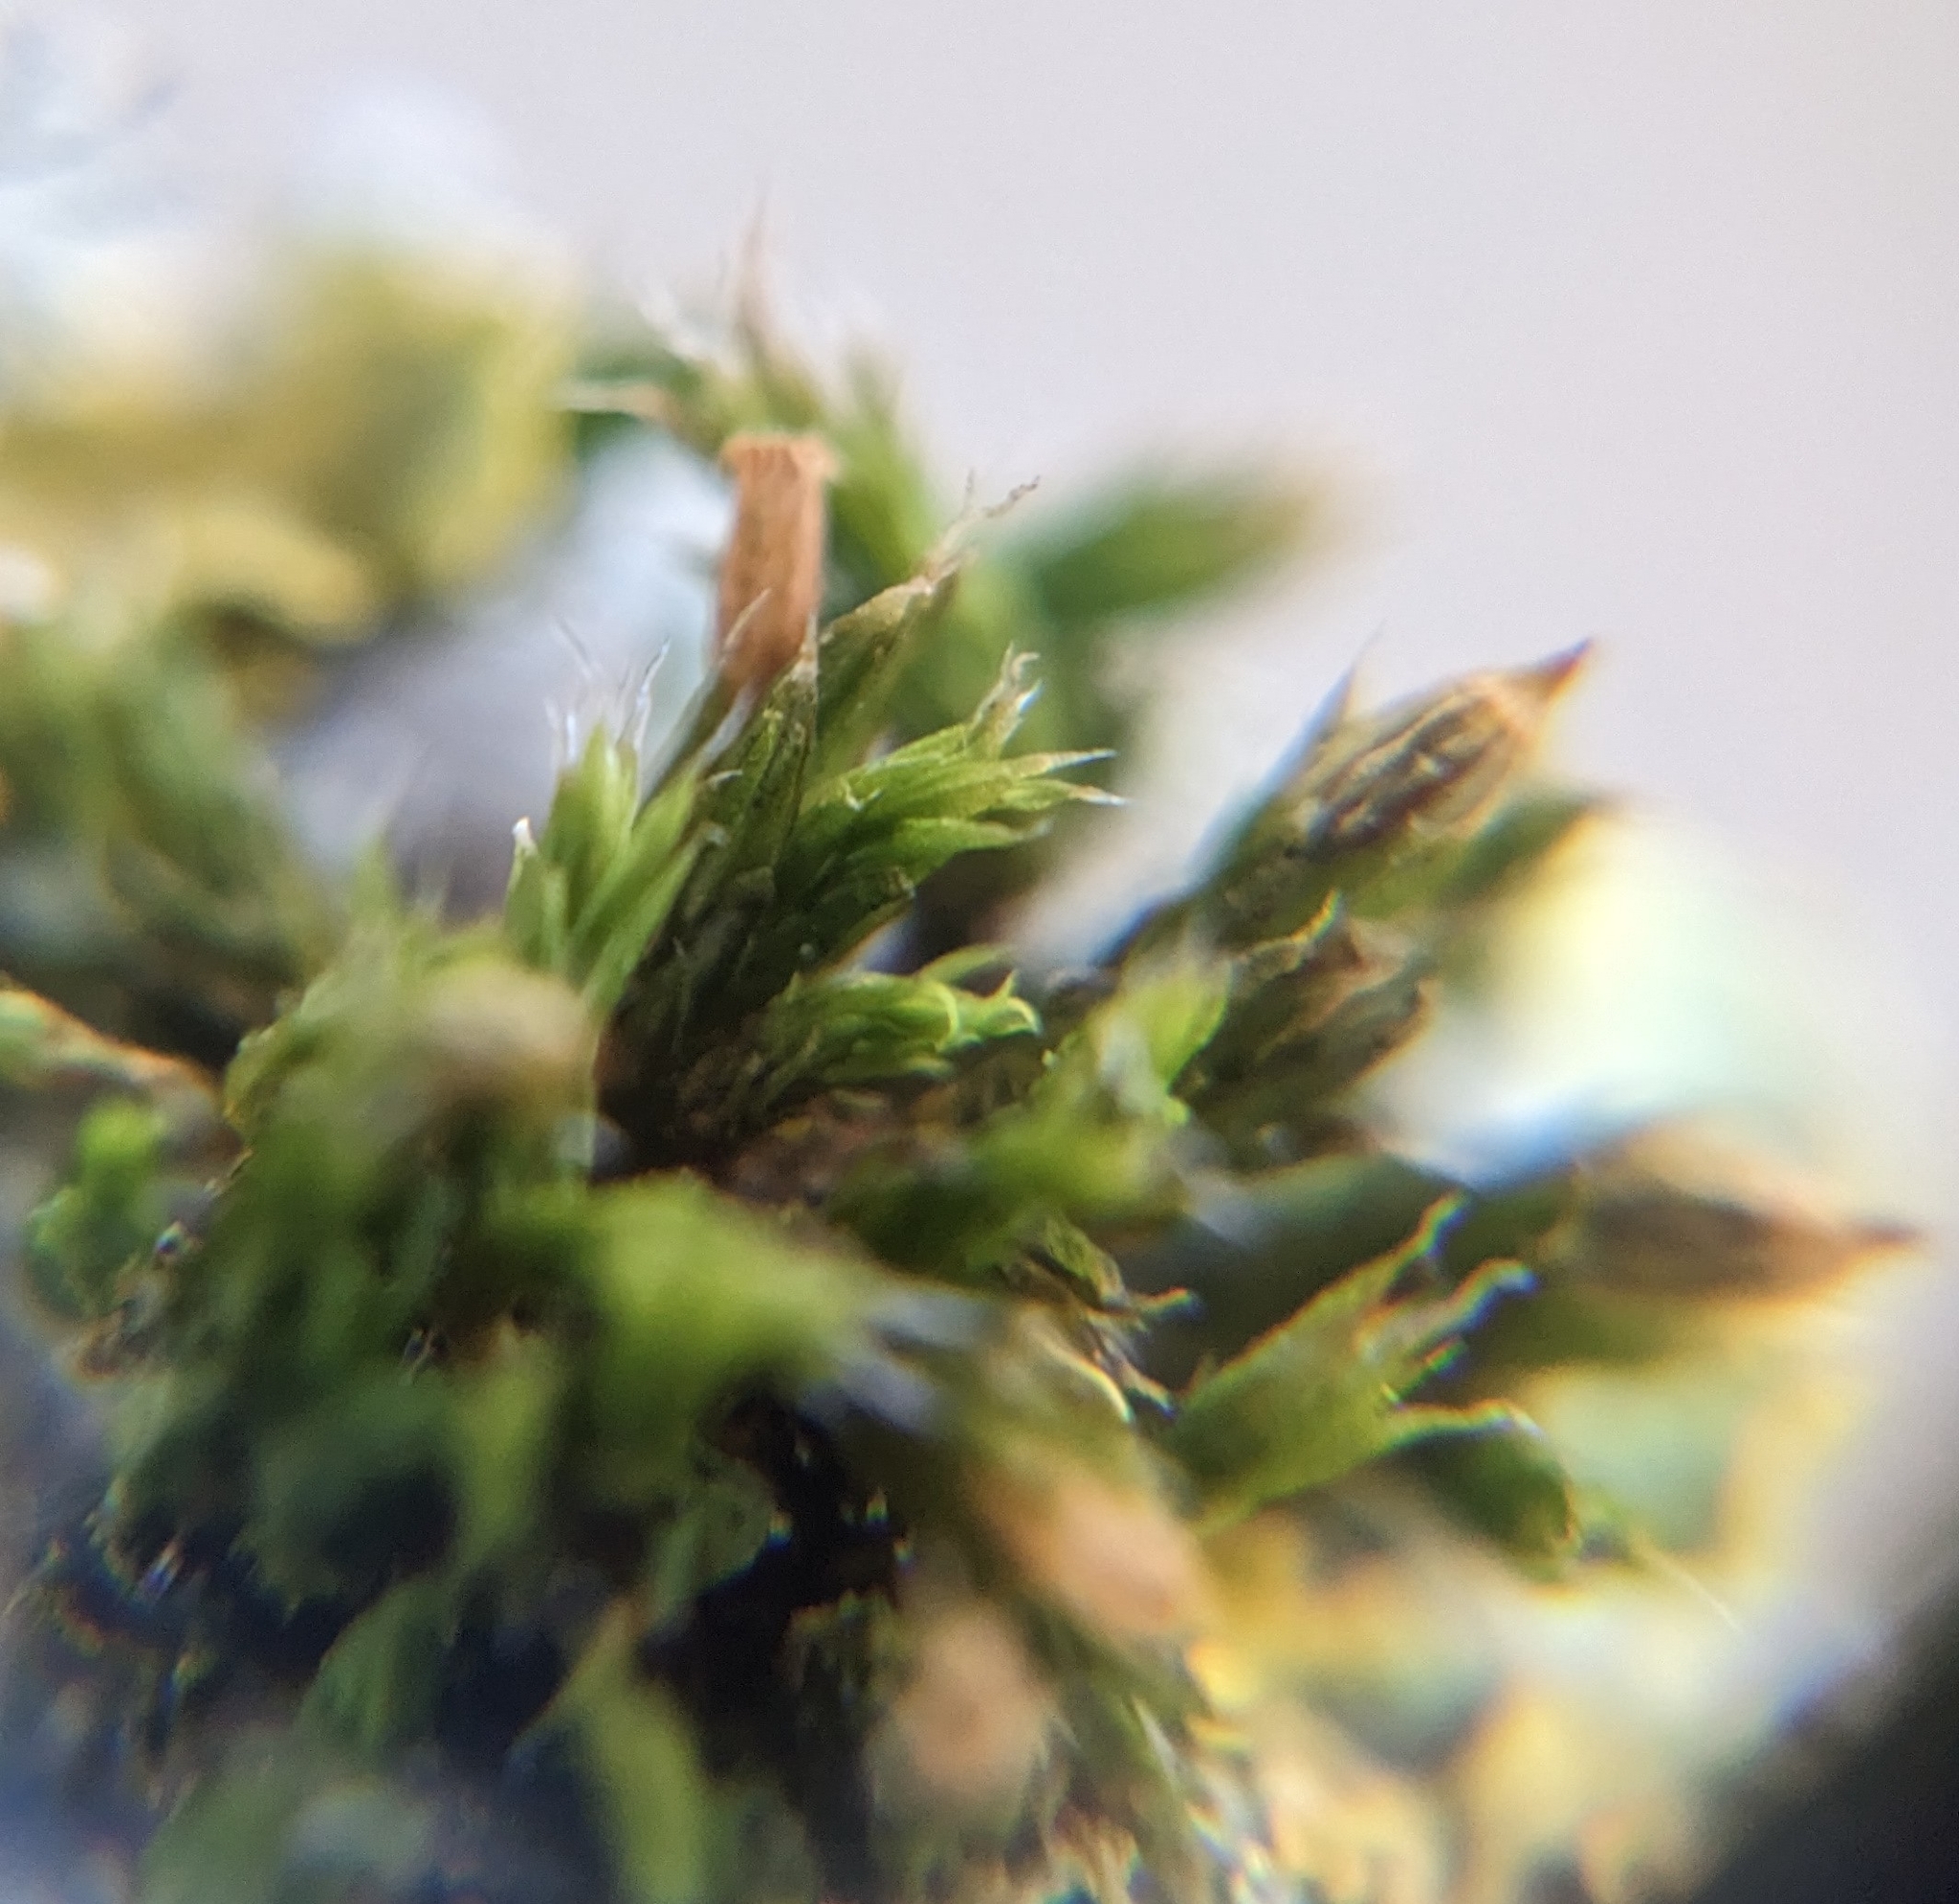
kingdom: Plantae
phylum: Bryophyta
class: Bryopsida
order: Orthotrichales
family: Orthotrichaceae
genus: Orthotrichum
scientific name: Orthotrichum diaphanum
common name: White-tipped bristle-moss
